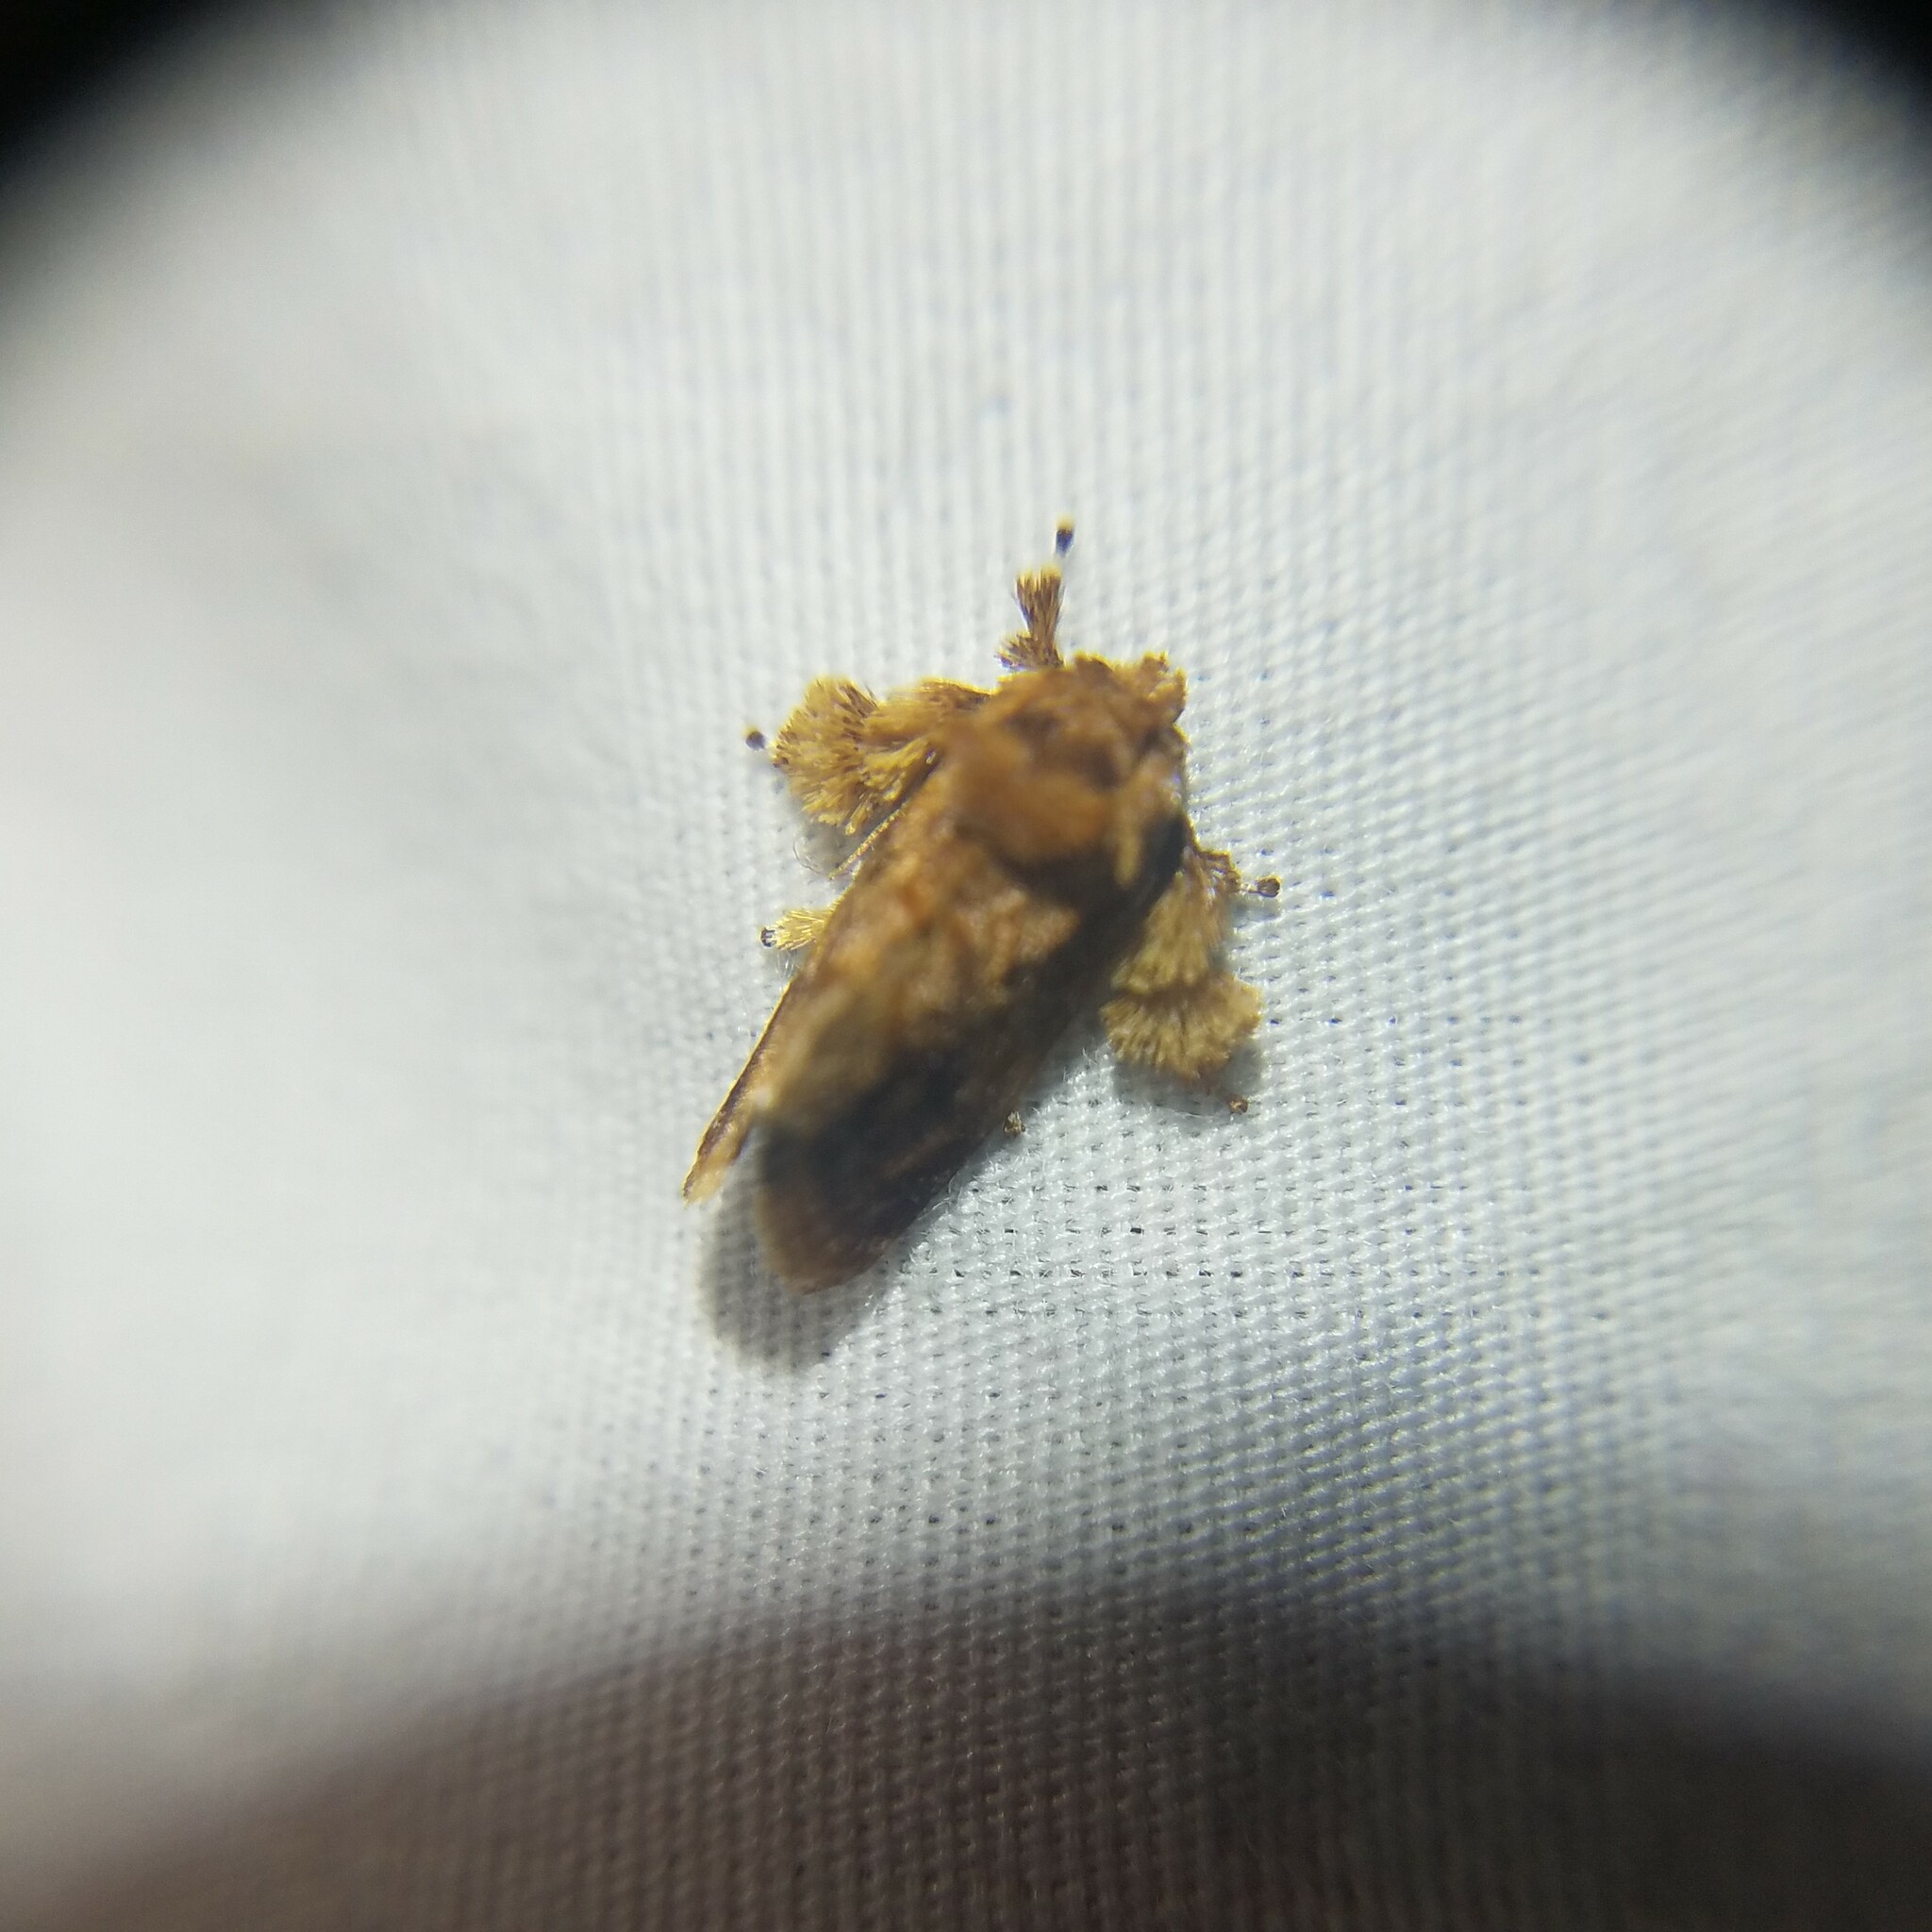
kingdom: Animalia
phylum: Arthropoda
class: Insecta
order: Lepidoptera
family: Limacodidae
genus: Isochaetes
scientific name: Isochaetes beutenmuelleri
